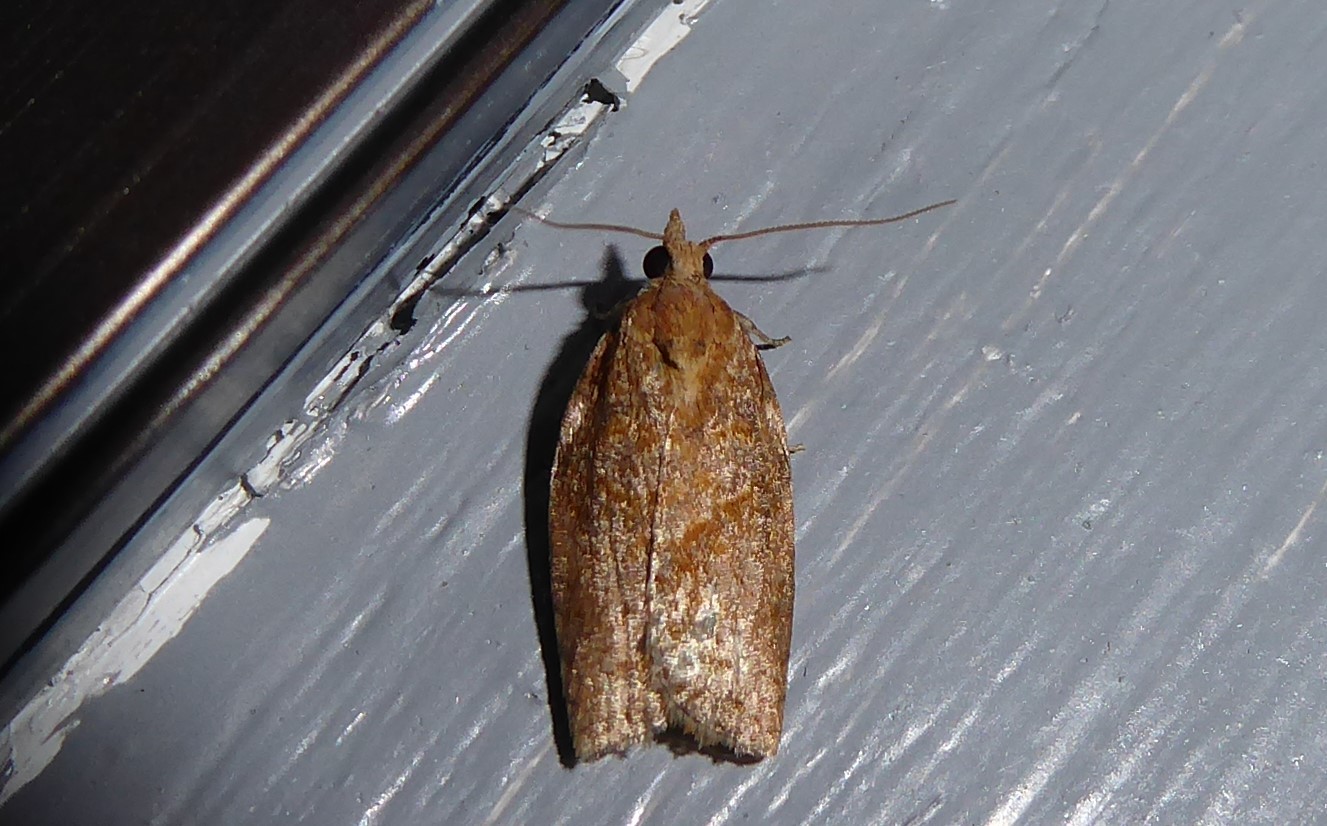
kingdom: Animalia
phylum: Arthropoda
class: Insecta
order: Lepidoptera
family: Tortricidae
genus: Epiphyas
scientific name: Epiphyas postvittana
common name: Light brown apple moth
